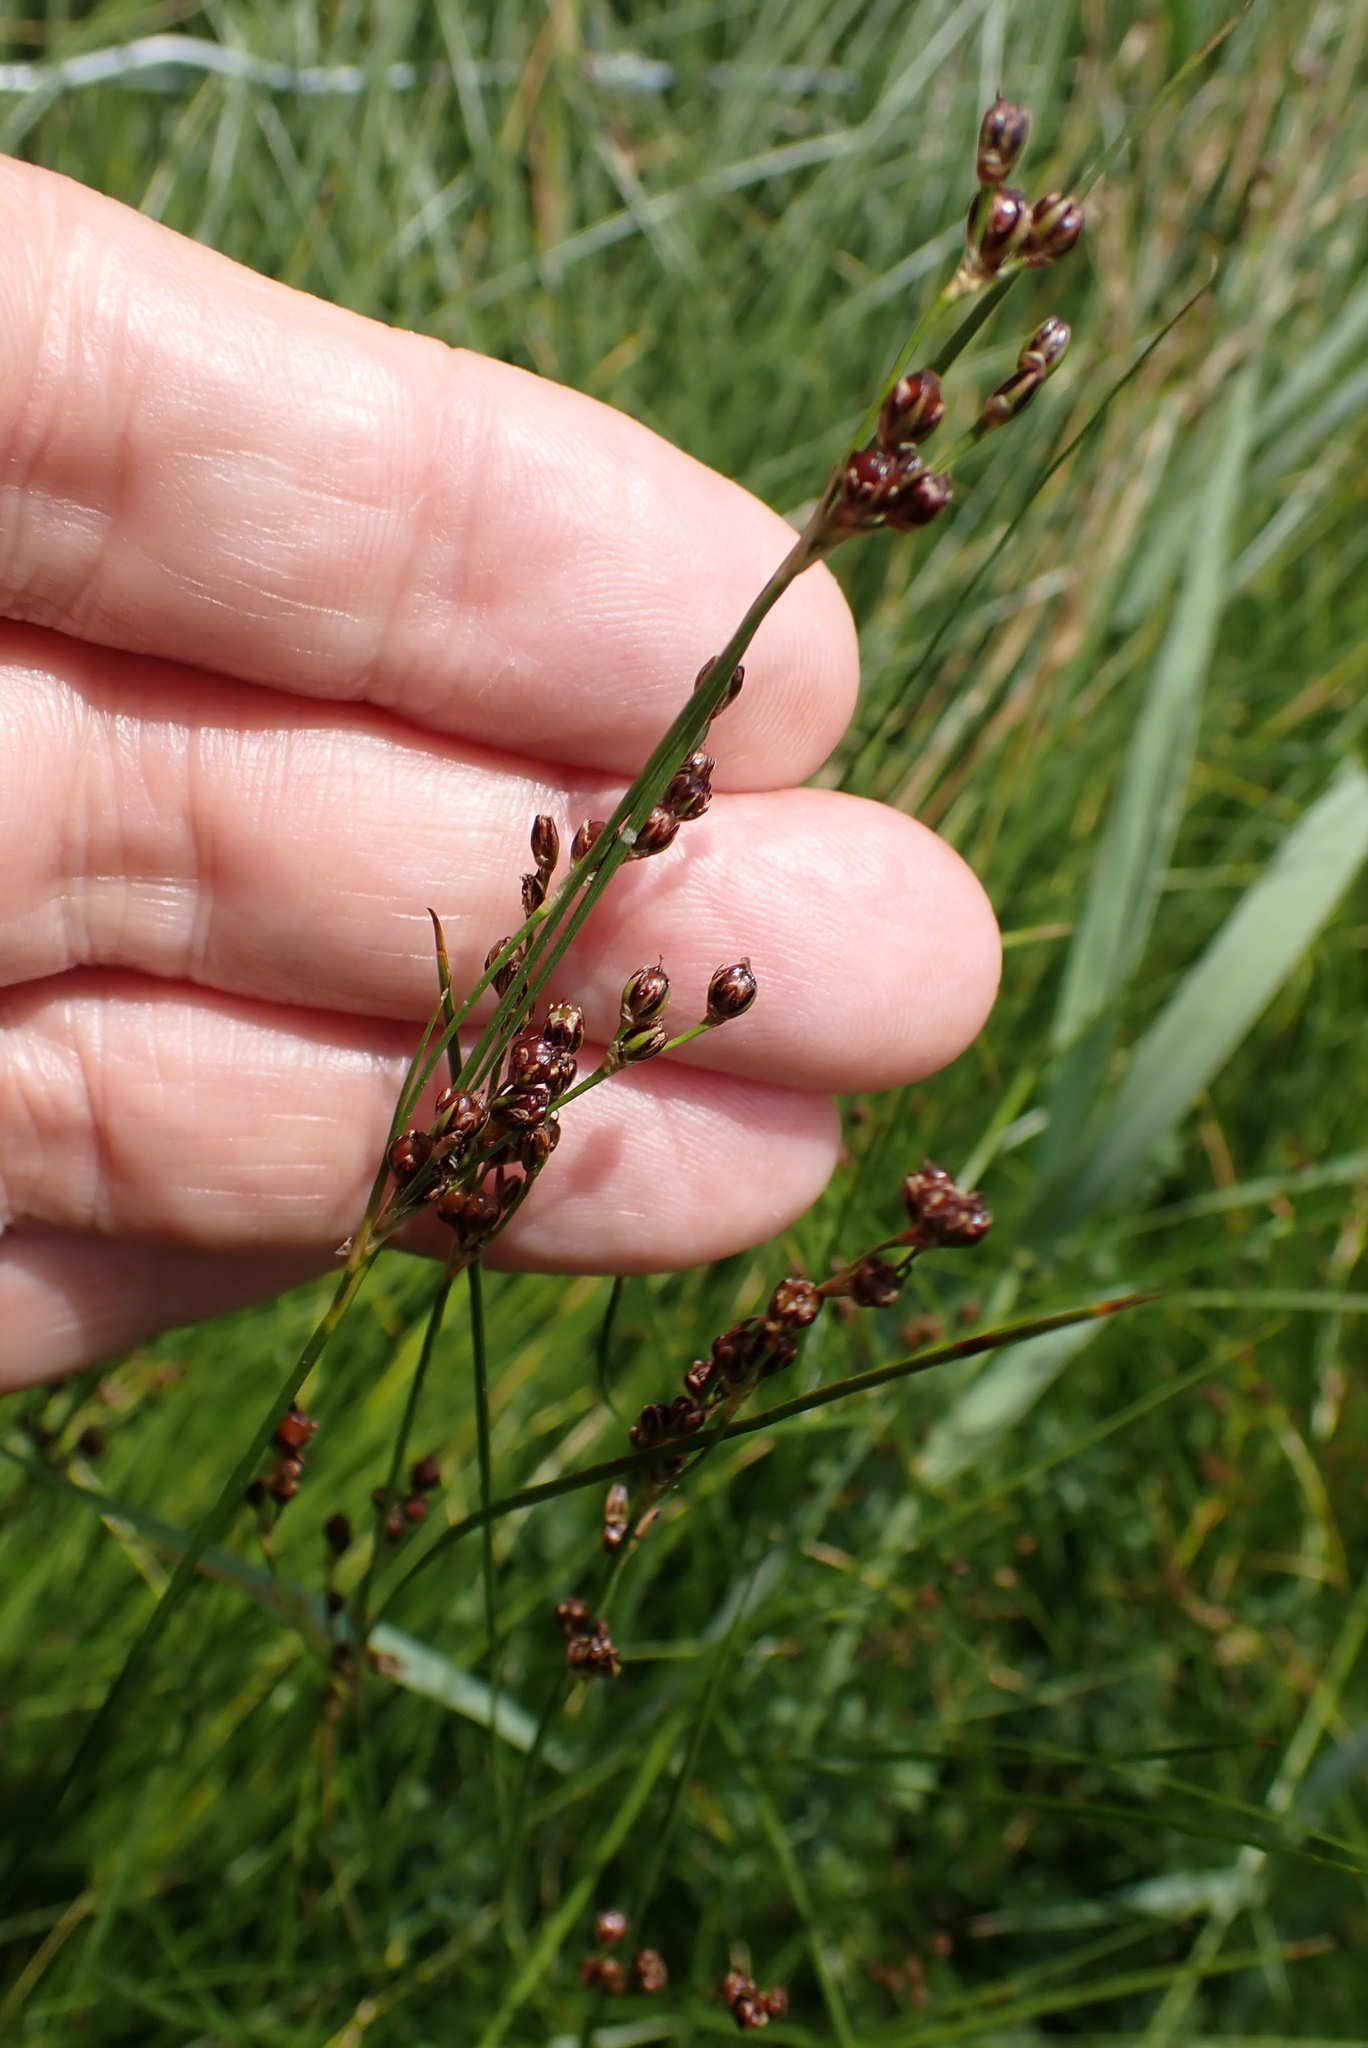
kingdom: Plantae
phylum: Tracheophyta
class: Liliopsida
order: Poales
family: Juncaceae
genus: Juncus
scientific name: Juncus gerardi
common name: Saltmarsh rush
